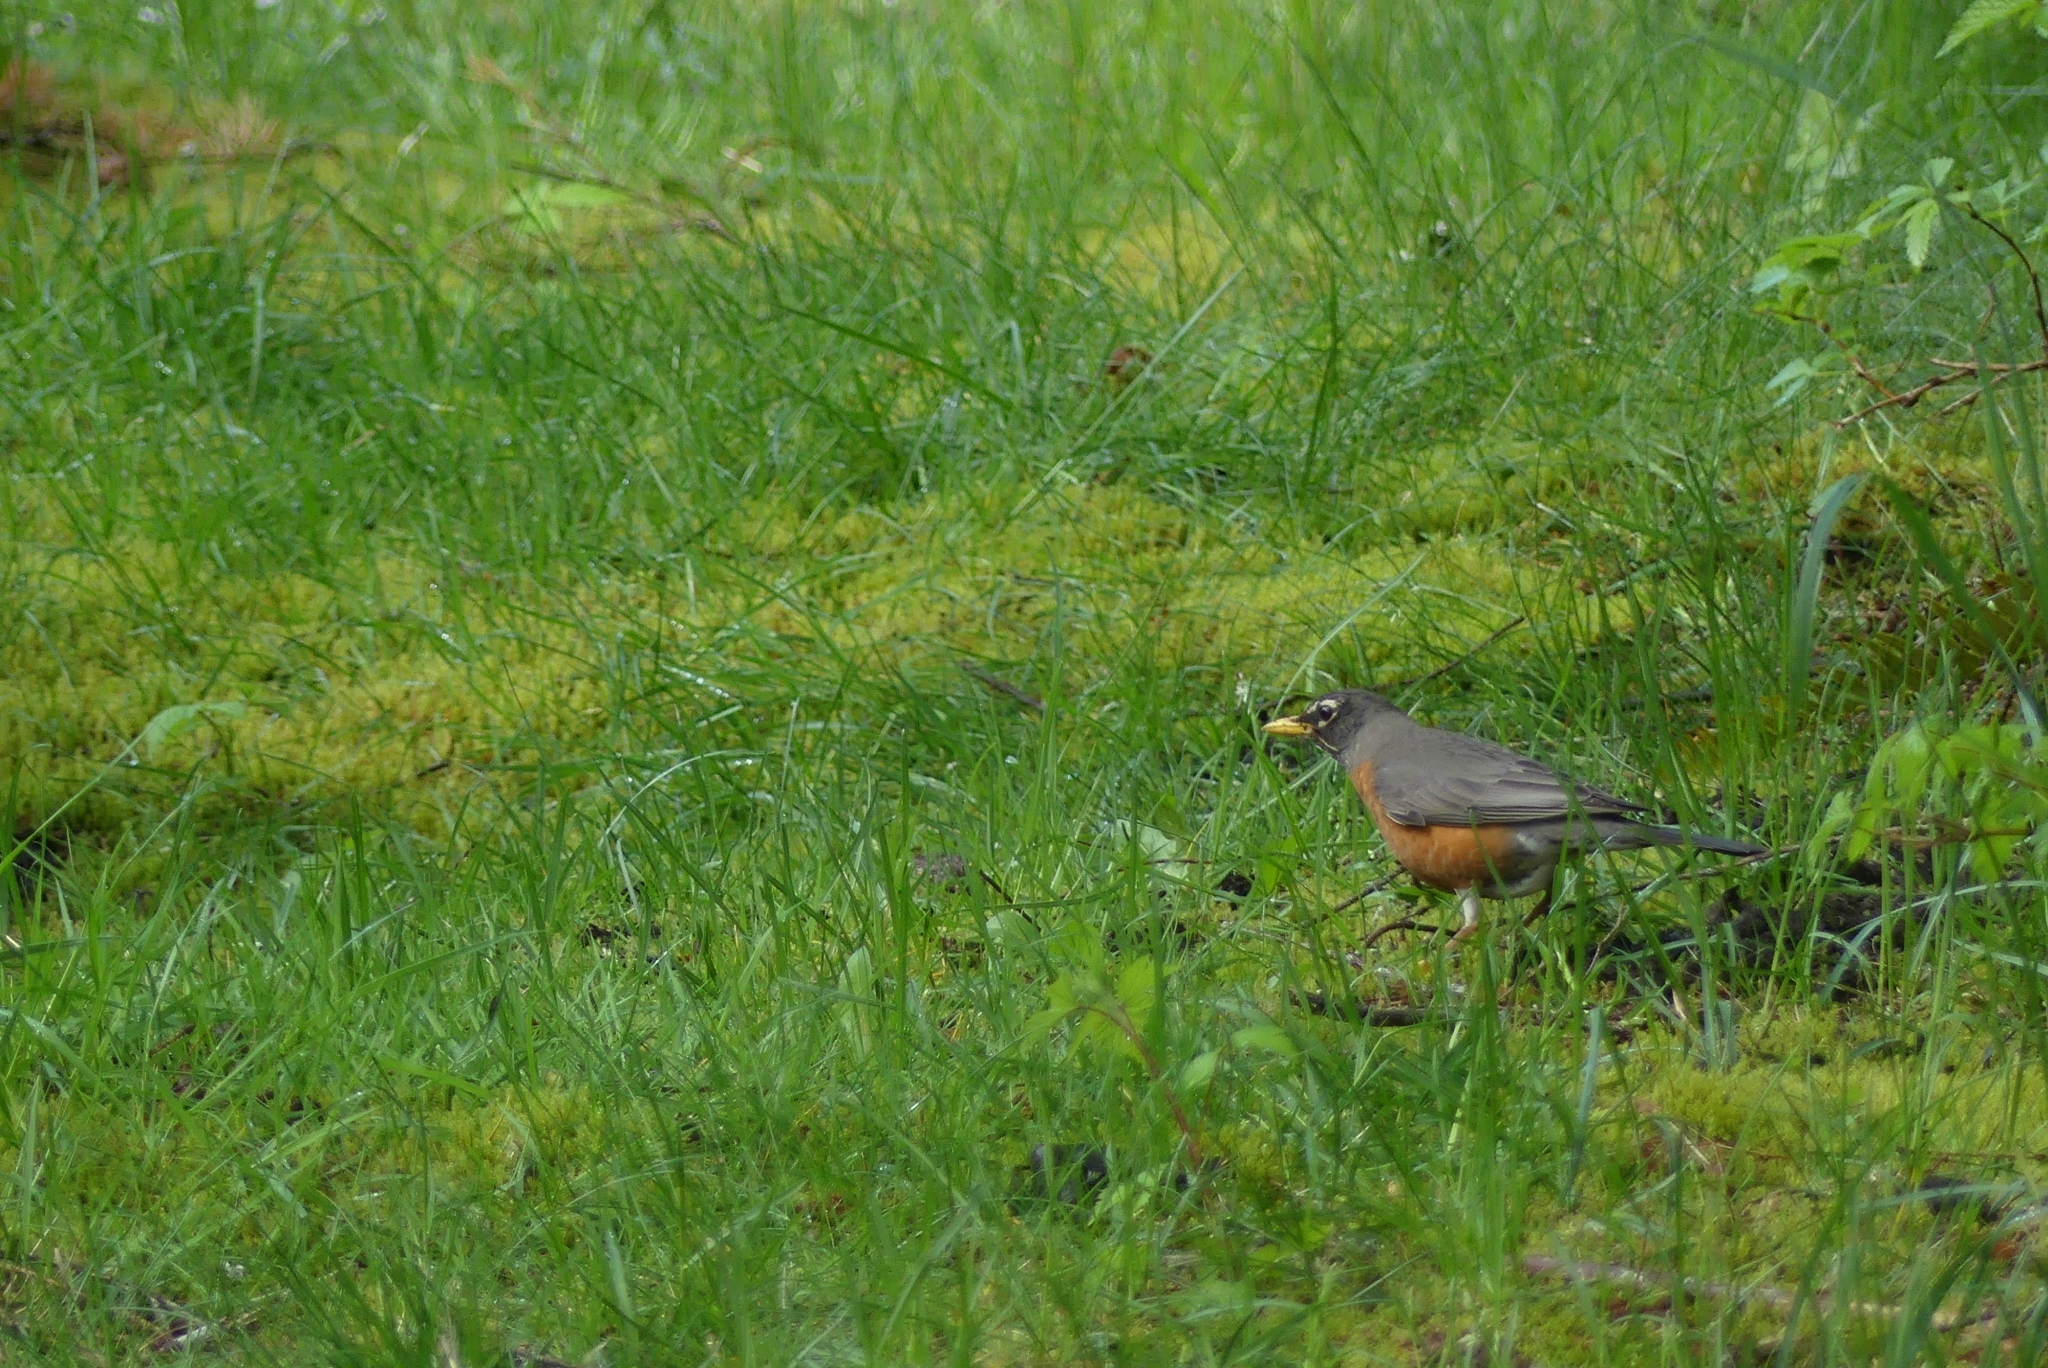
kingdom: Animalia
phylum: Chordata
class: Aves
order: Passeriformes
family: Turdidae
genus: Turdus
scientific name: Turdus migratorius
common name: American robin
